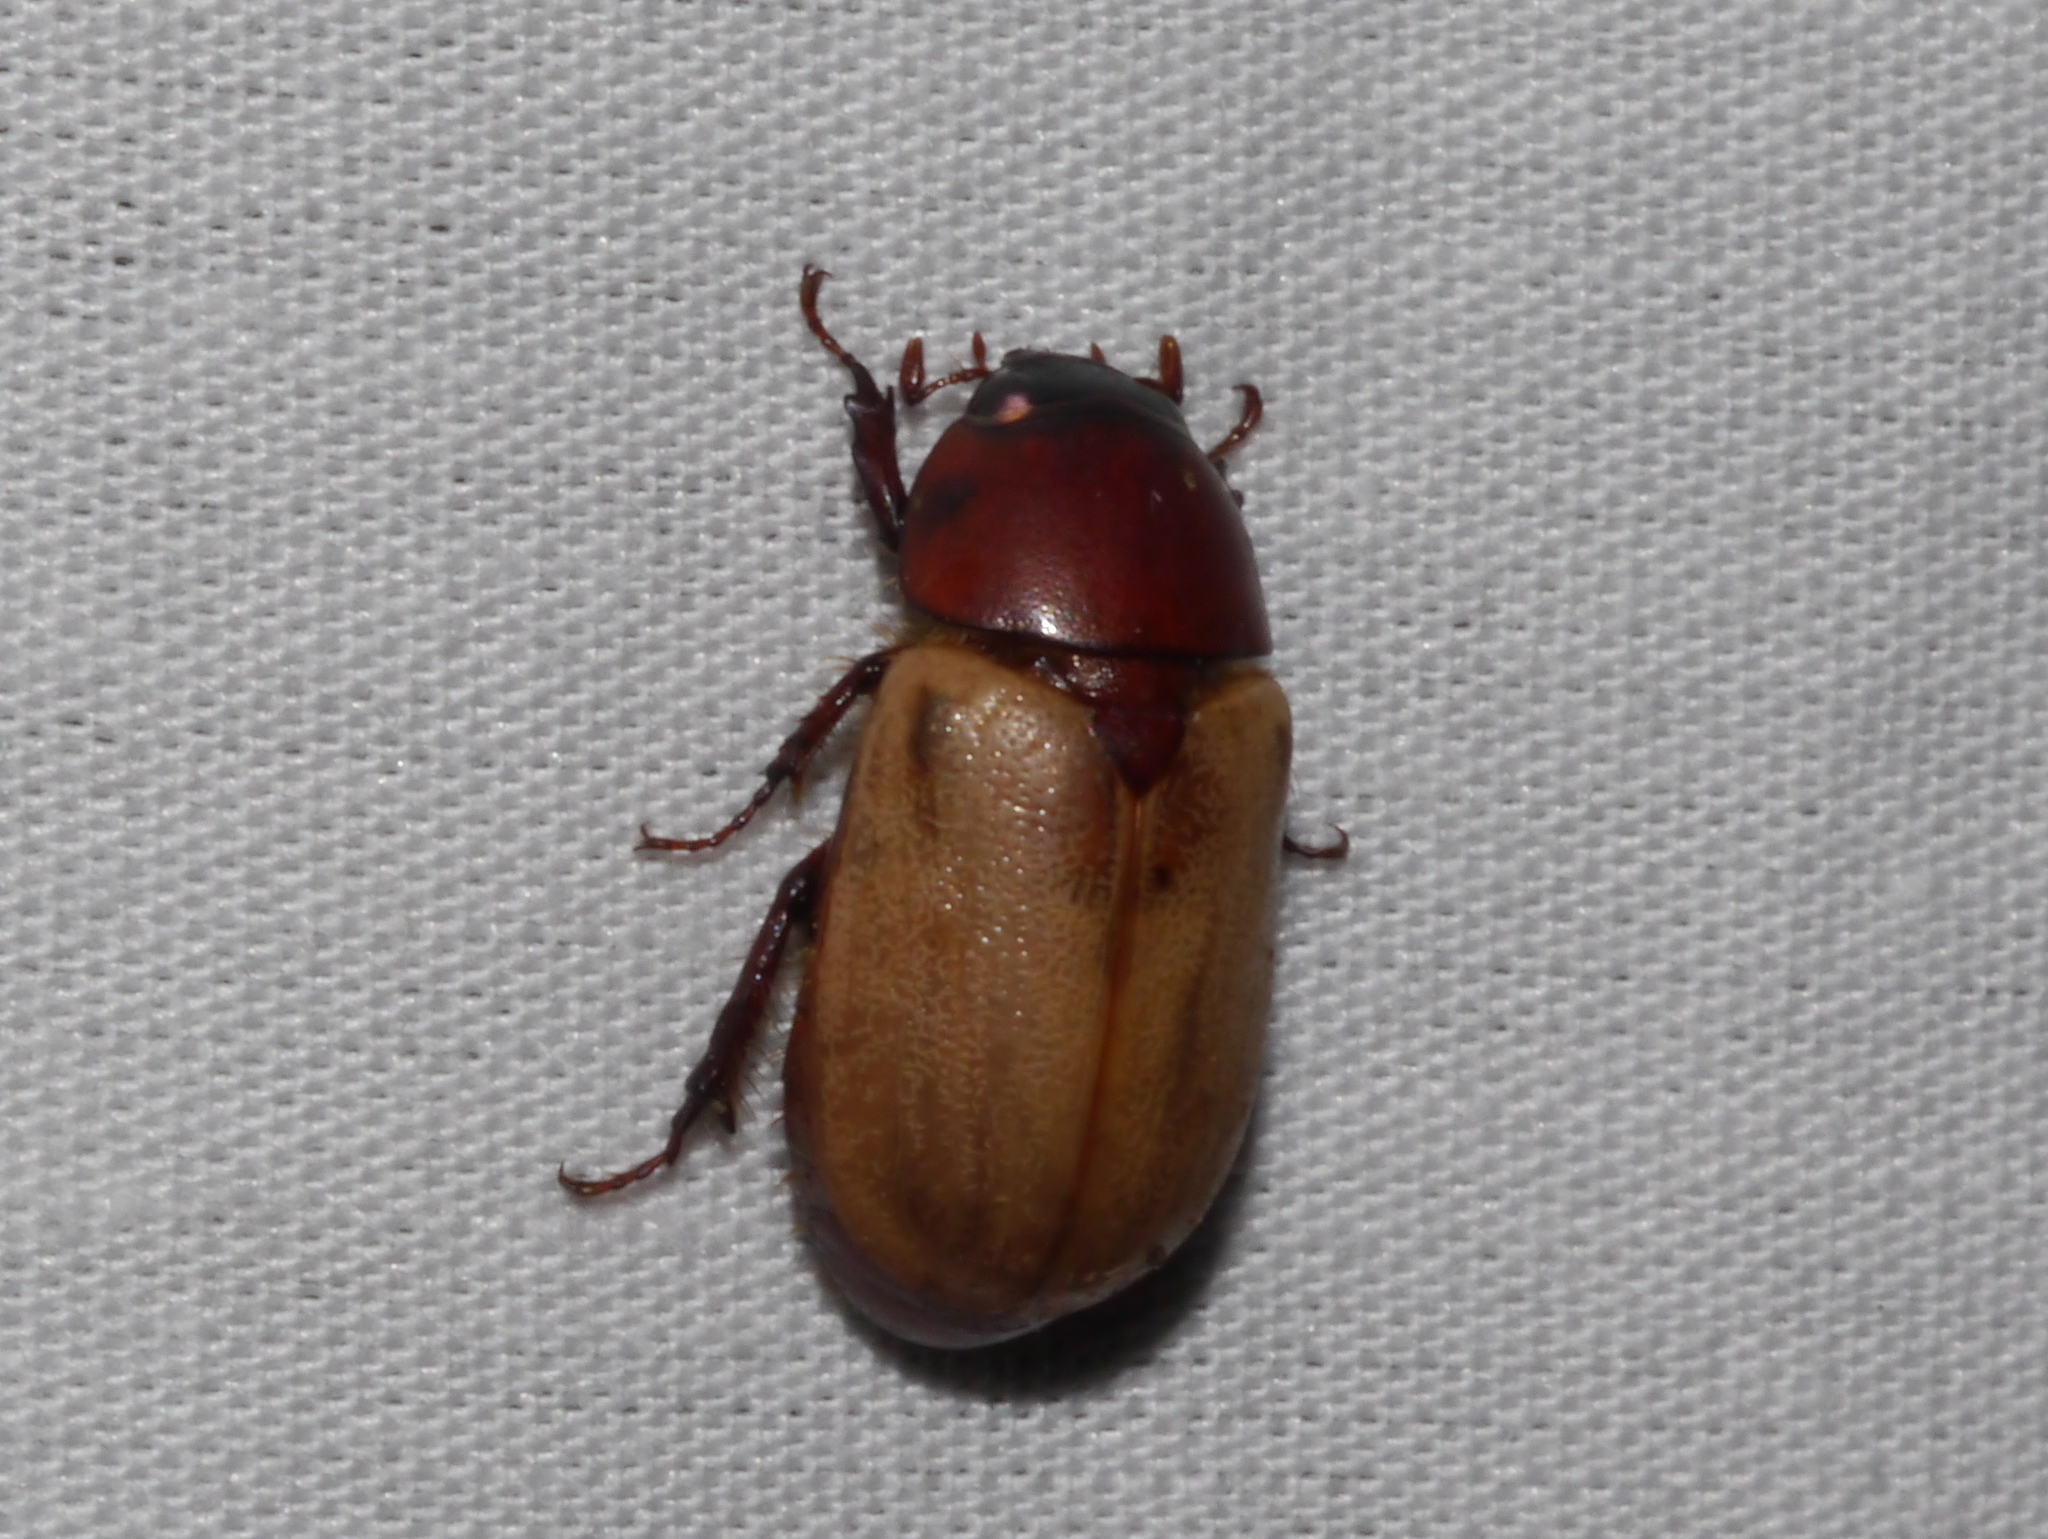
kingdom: Animalia
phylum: Arthropoda
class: Insecta
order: Coleoptera
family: Scarabaeidae
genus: Cyclocephala
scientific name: Cyclocephala melanocephala
